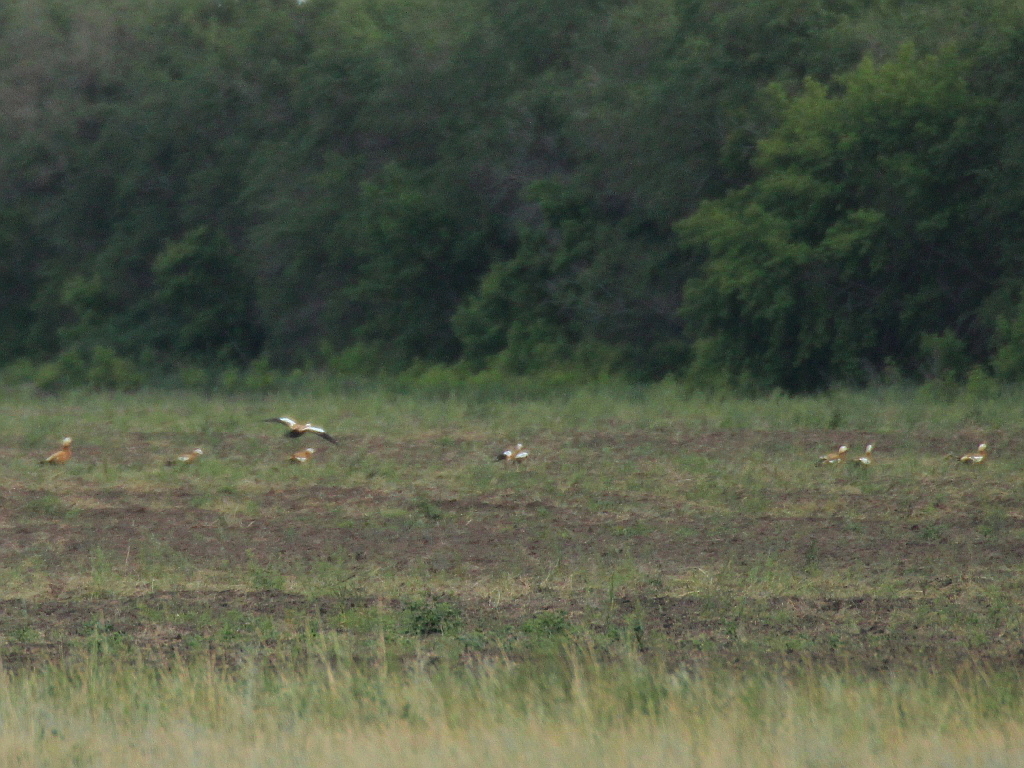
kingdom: Animalia
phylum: Chordata
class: Aves
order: Anseriformes
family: Anatidae
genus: Tadorna
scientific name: Tadorna ferruginea
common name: Ruddy shelduck
